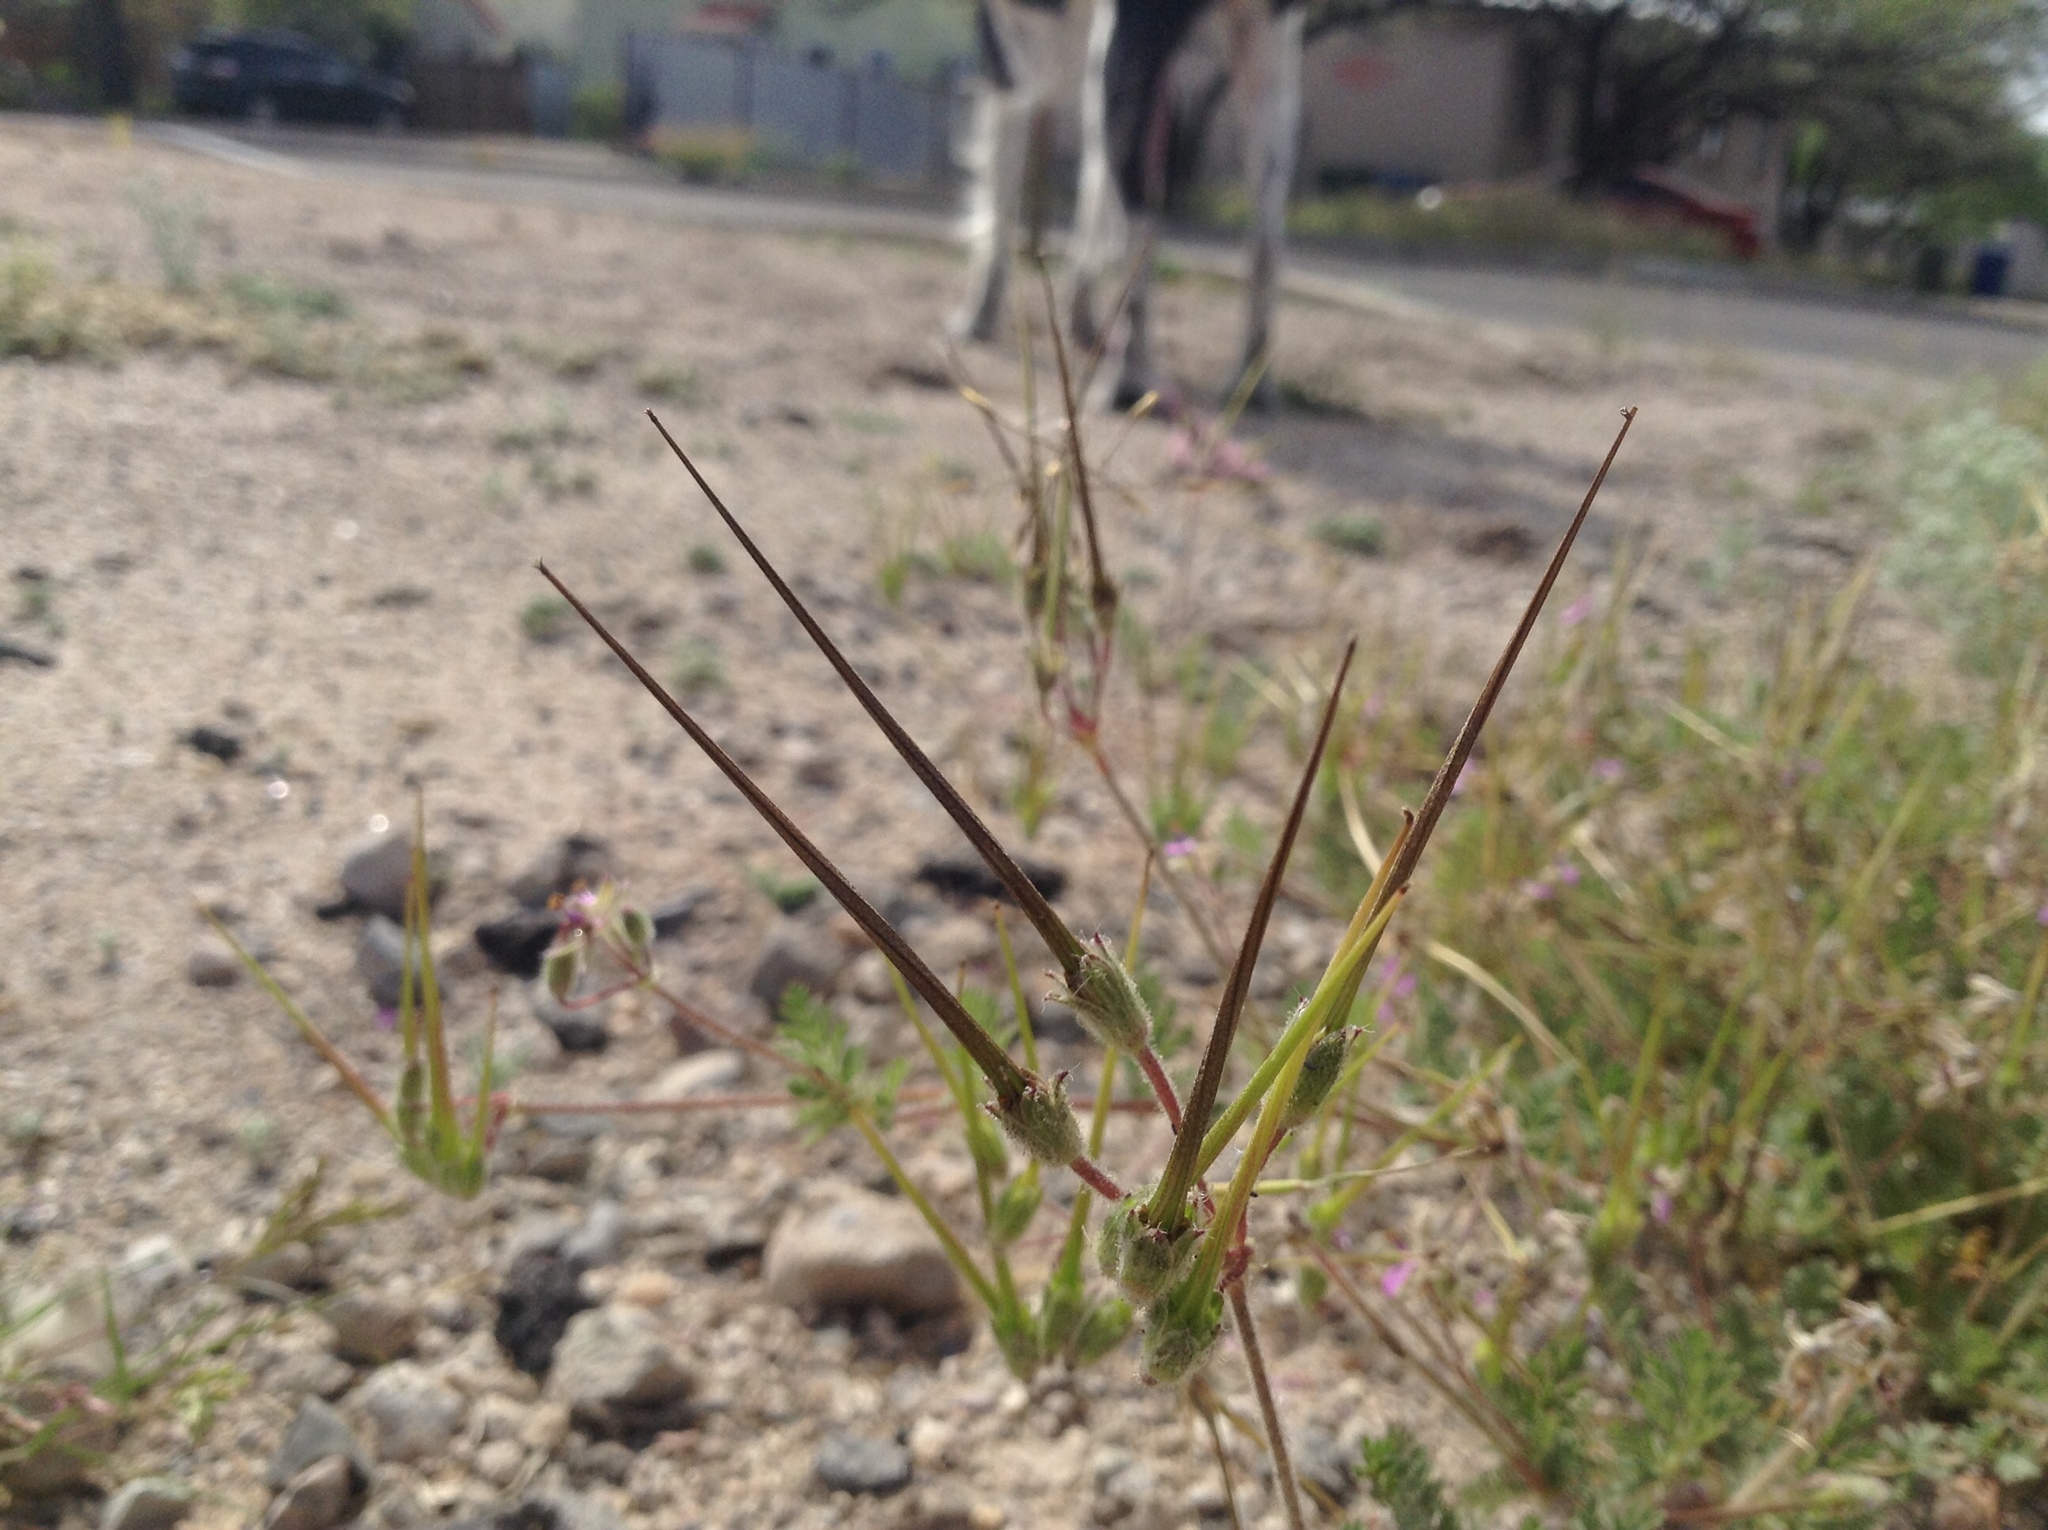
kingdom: Plantae
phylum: Tracheophyta
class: Magnoliopsida
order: Geraniales
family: Geraniaceae
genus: Erodium
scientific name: Erodium cicutarium
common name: Common stork's-bill
